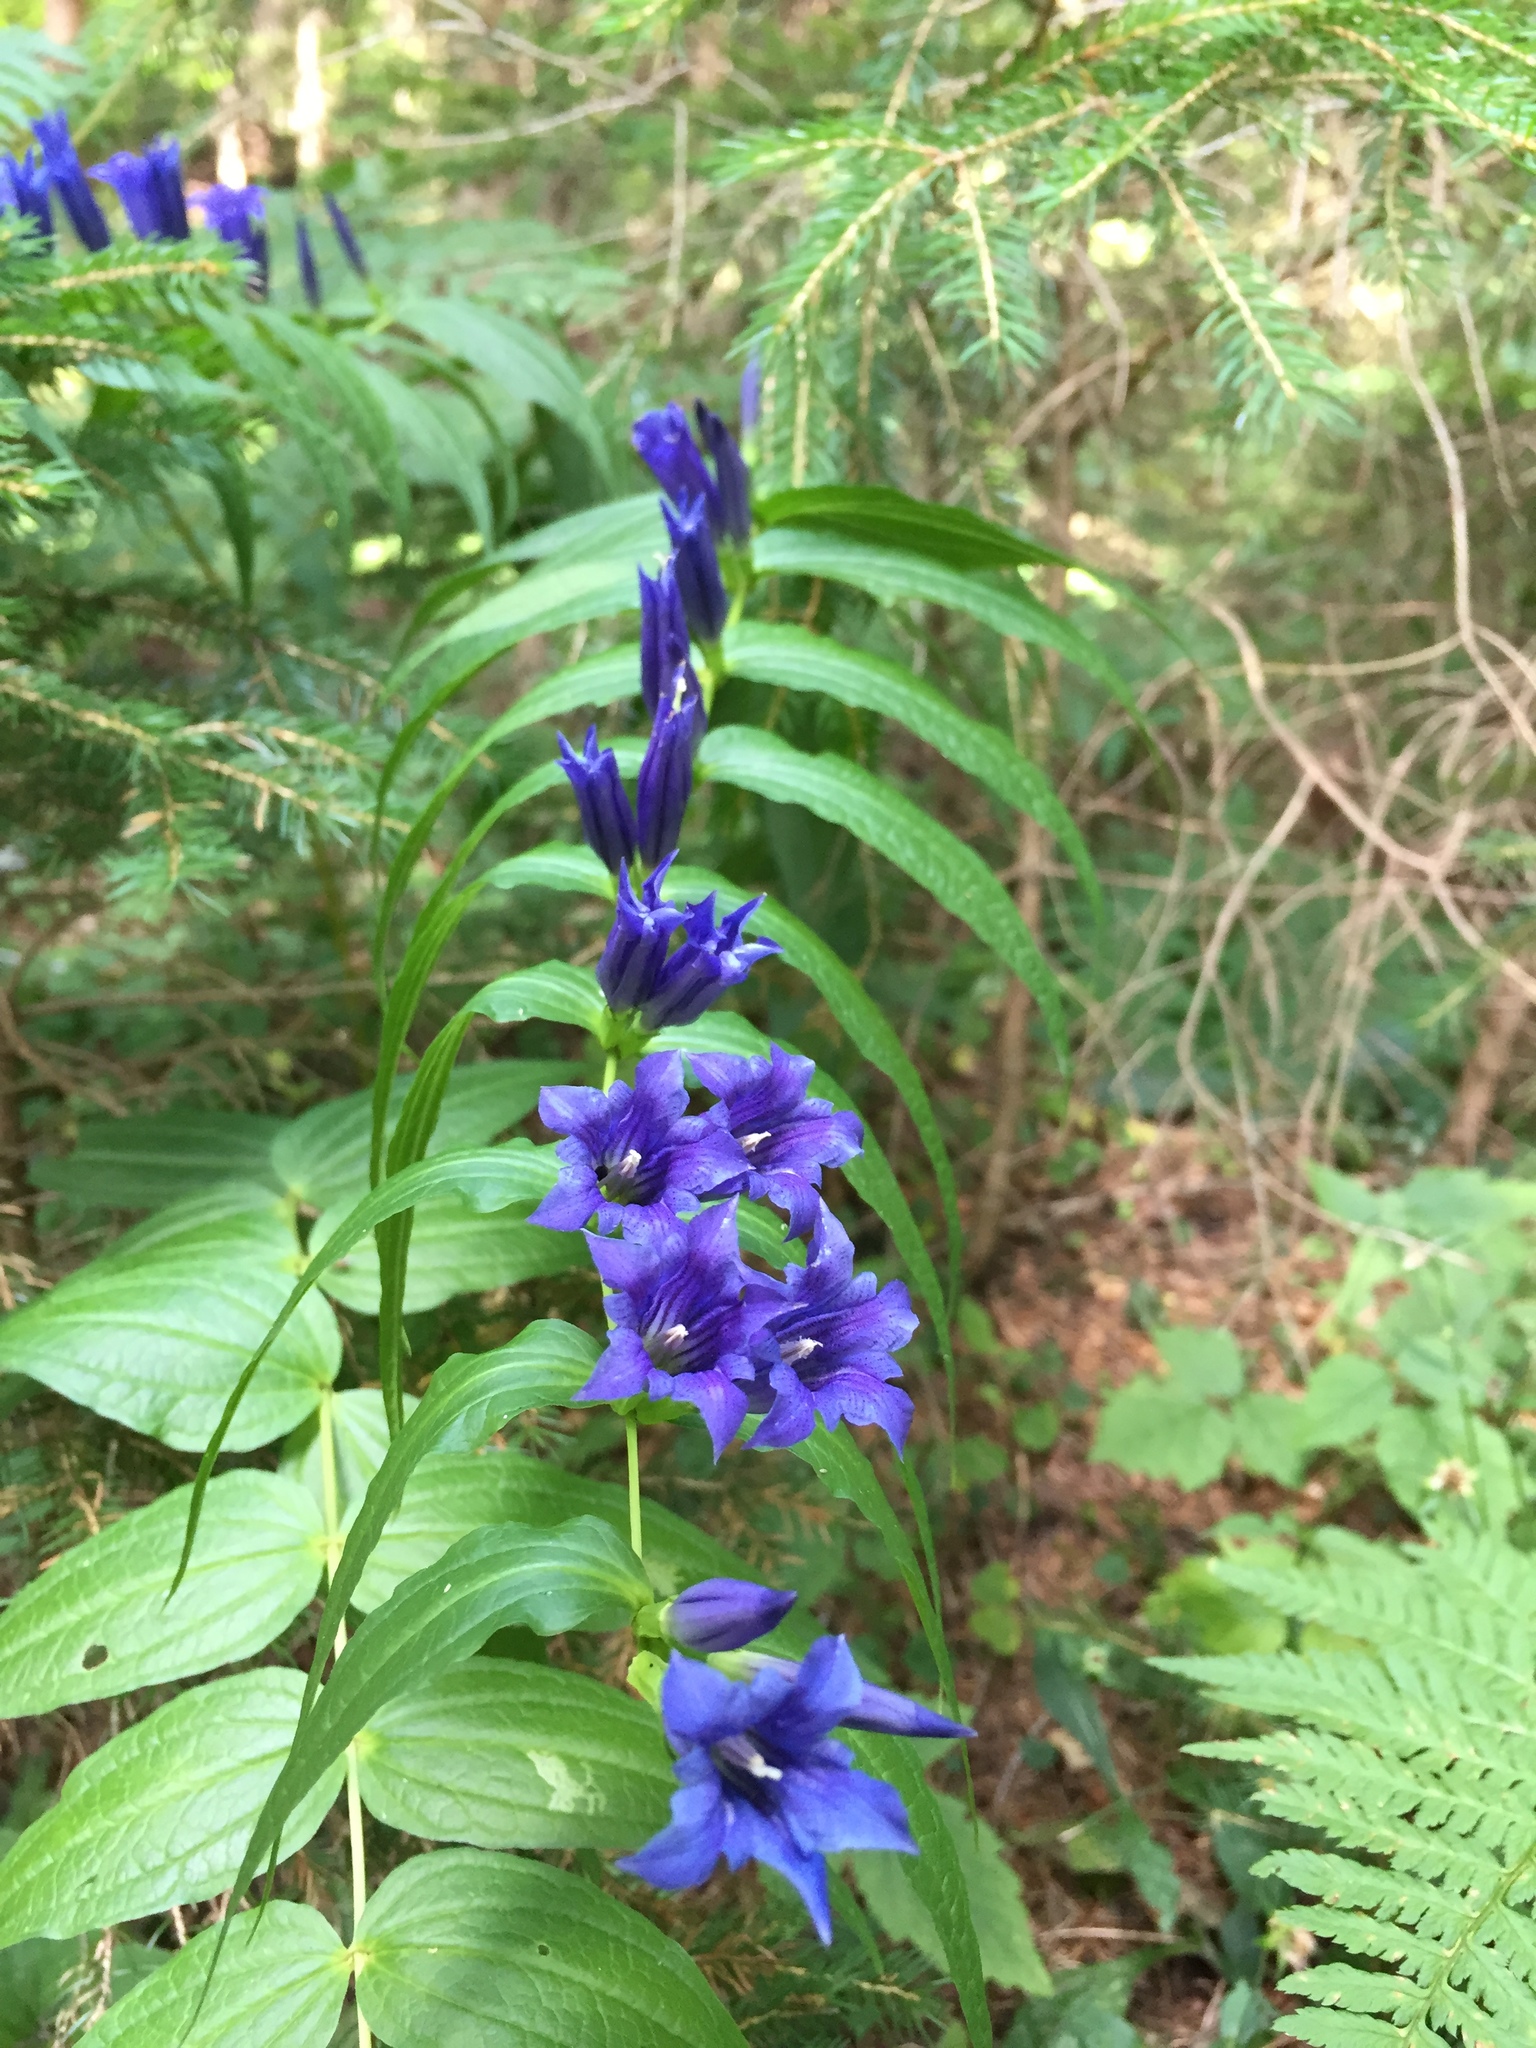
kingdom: Plantae
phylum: Tracheophyta
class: Magnoliopsida
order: Gentianales
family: Gentianaceae
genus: Gentiana
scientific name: Gentiana asclepiadea
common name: Willow gentian
